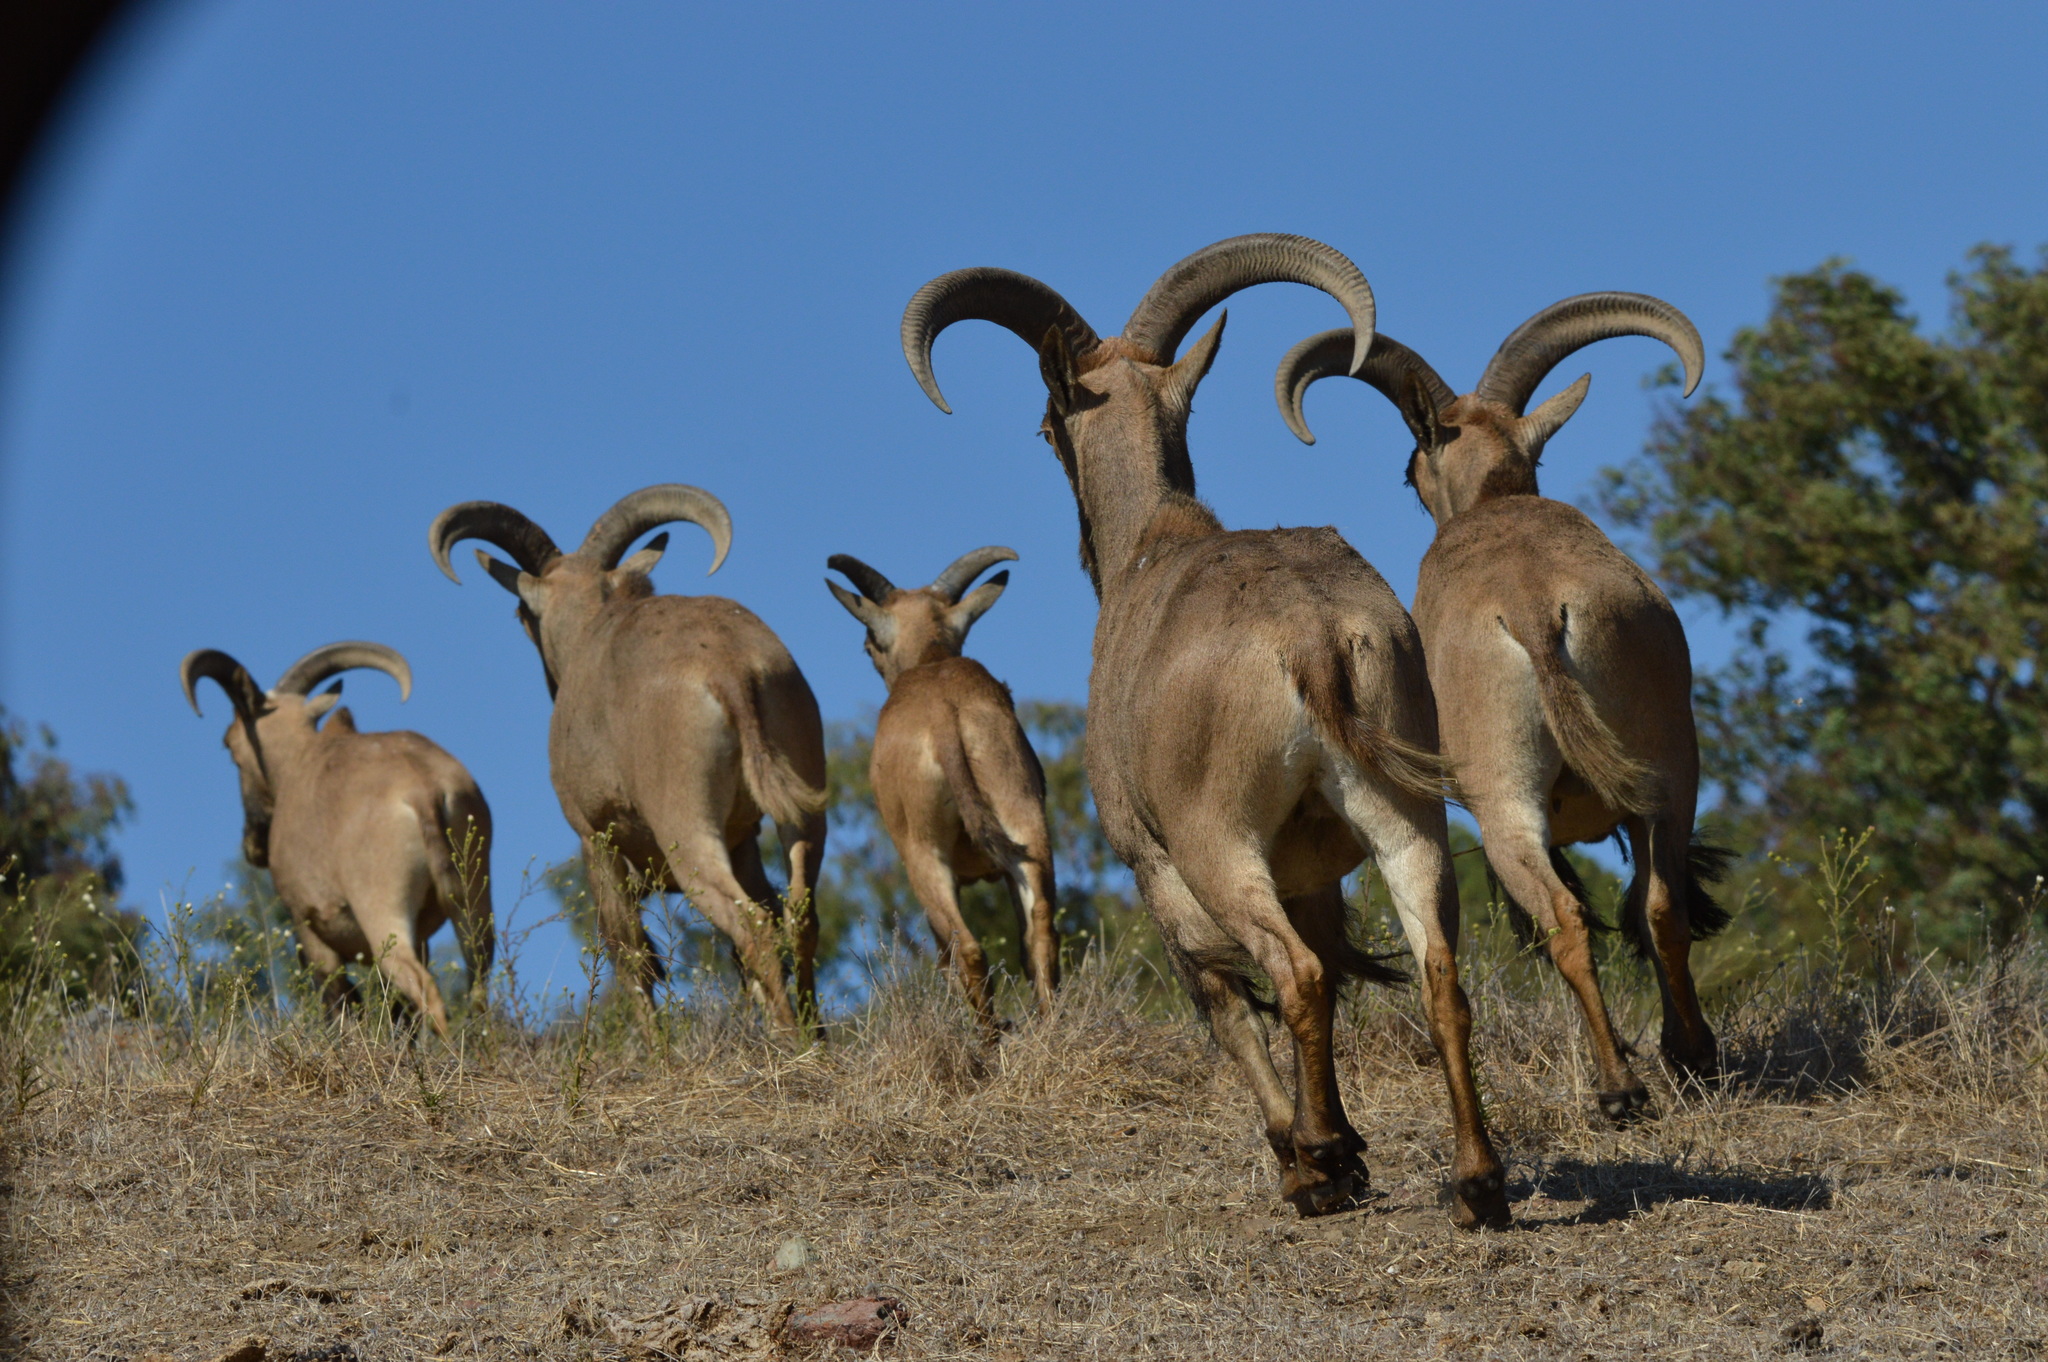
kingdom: Animalia
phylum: Chordata
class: Mammalia
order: Artiodactyla
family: Bovidae
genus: Ammotragus
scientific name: Ammotragus lervia
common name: Barbary sheep
